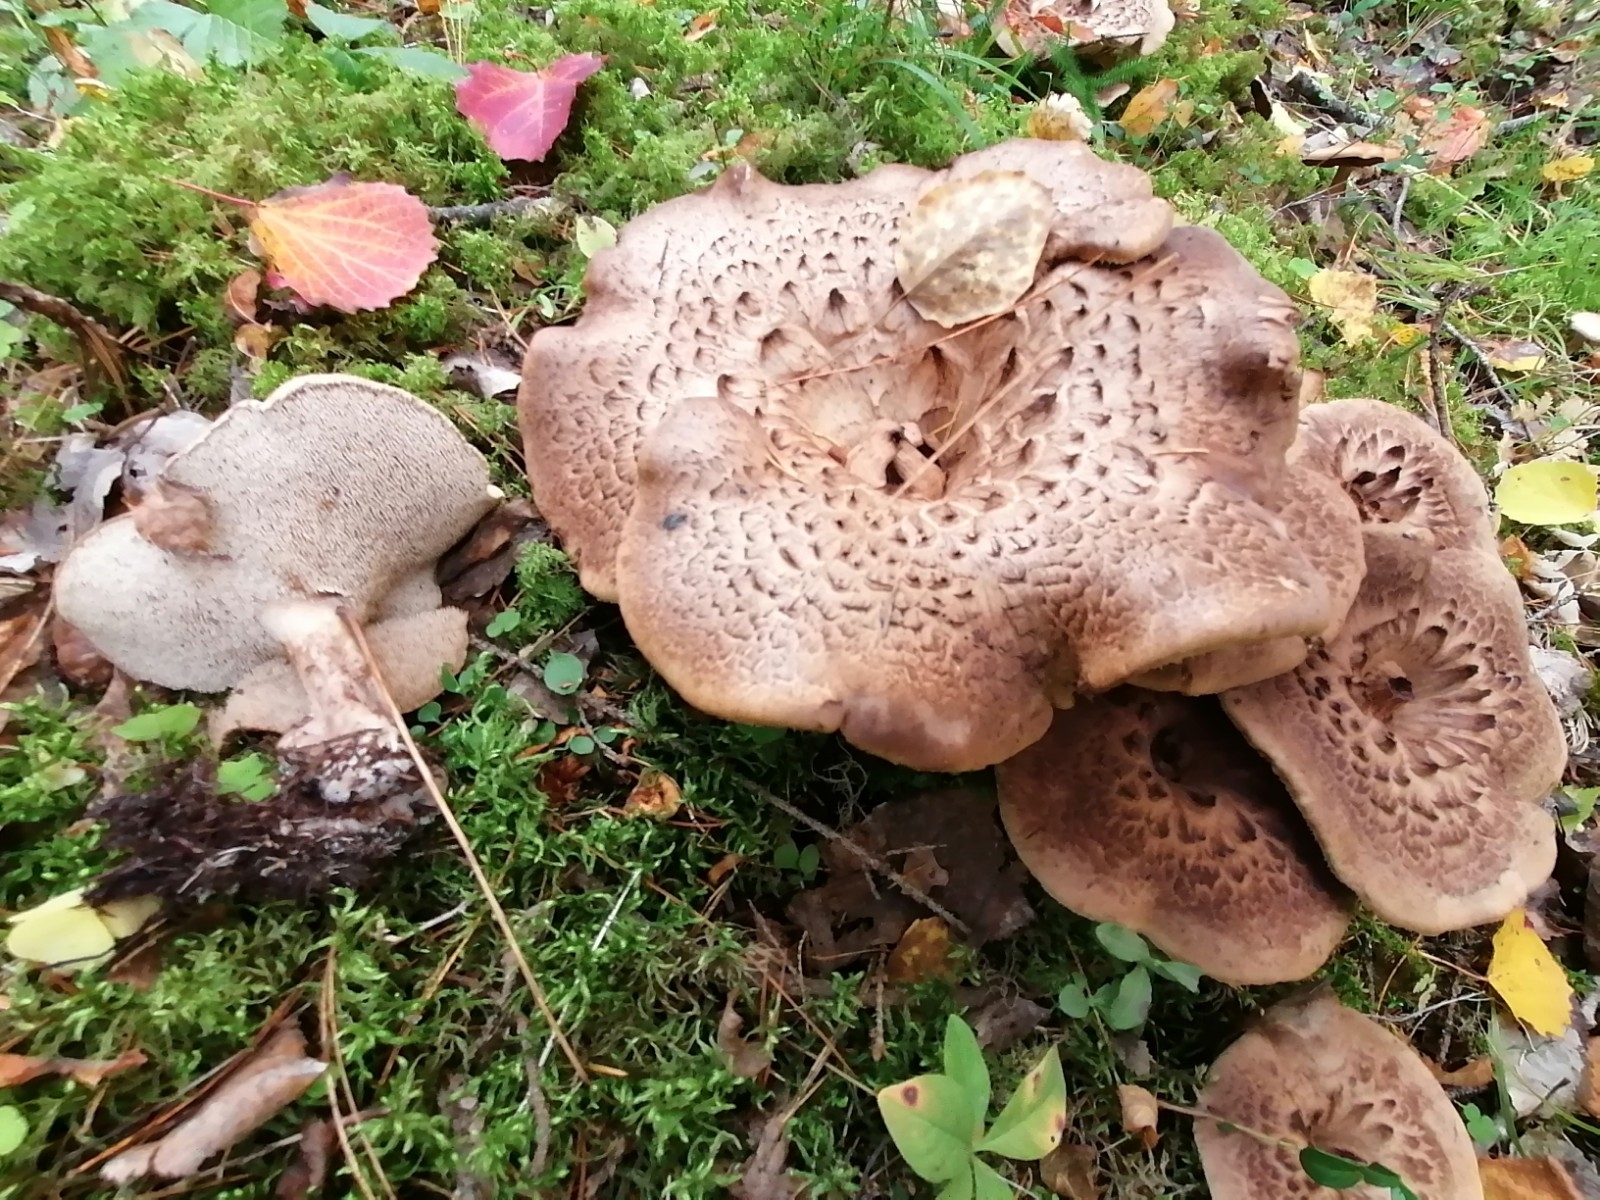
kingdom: Fungi
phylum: Basidiomycota
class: Agaricomycetes
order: Thelephorales
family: Bankeraceae
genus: Sarcodon
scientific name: Sarcodon squamosus
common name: Scaly tooth
